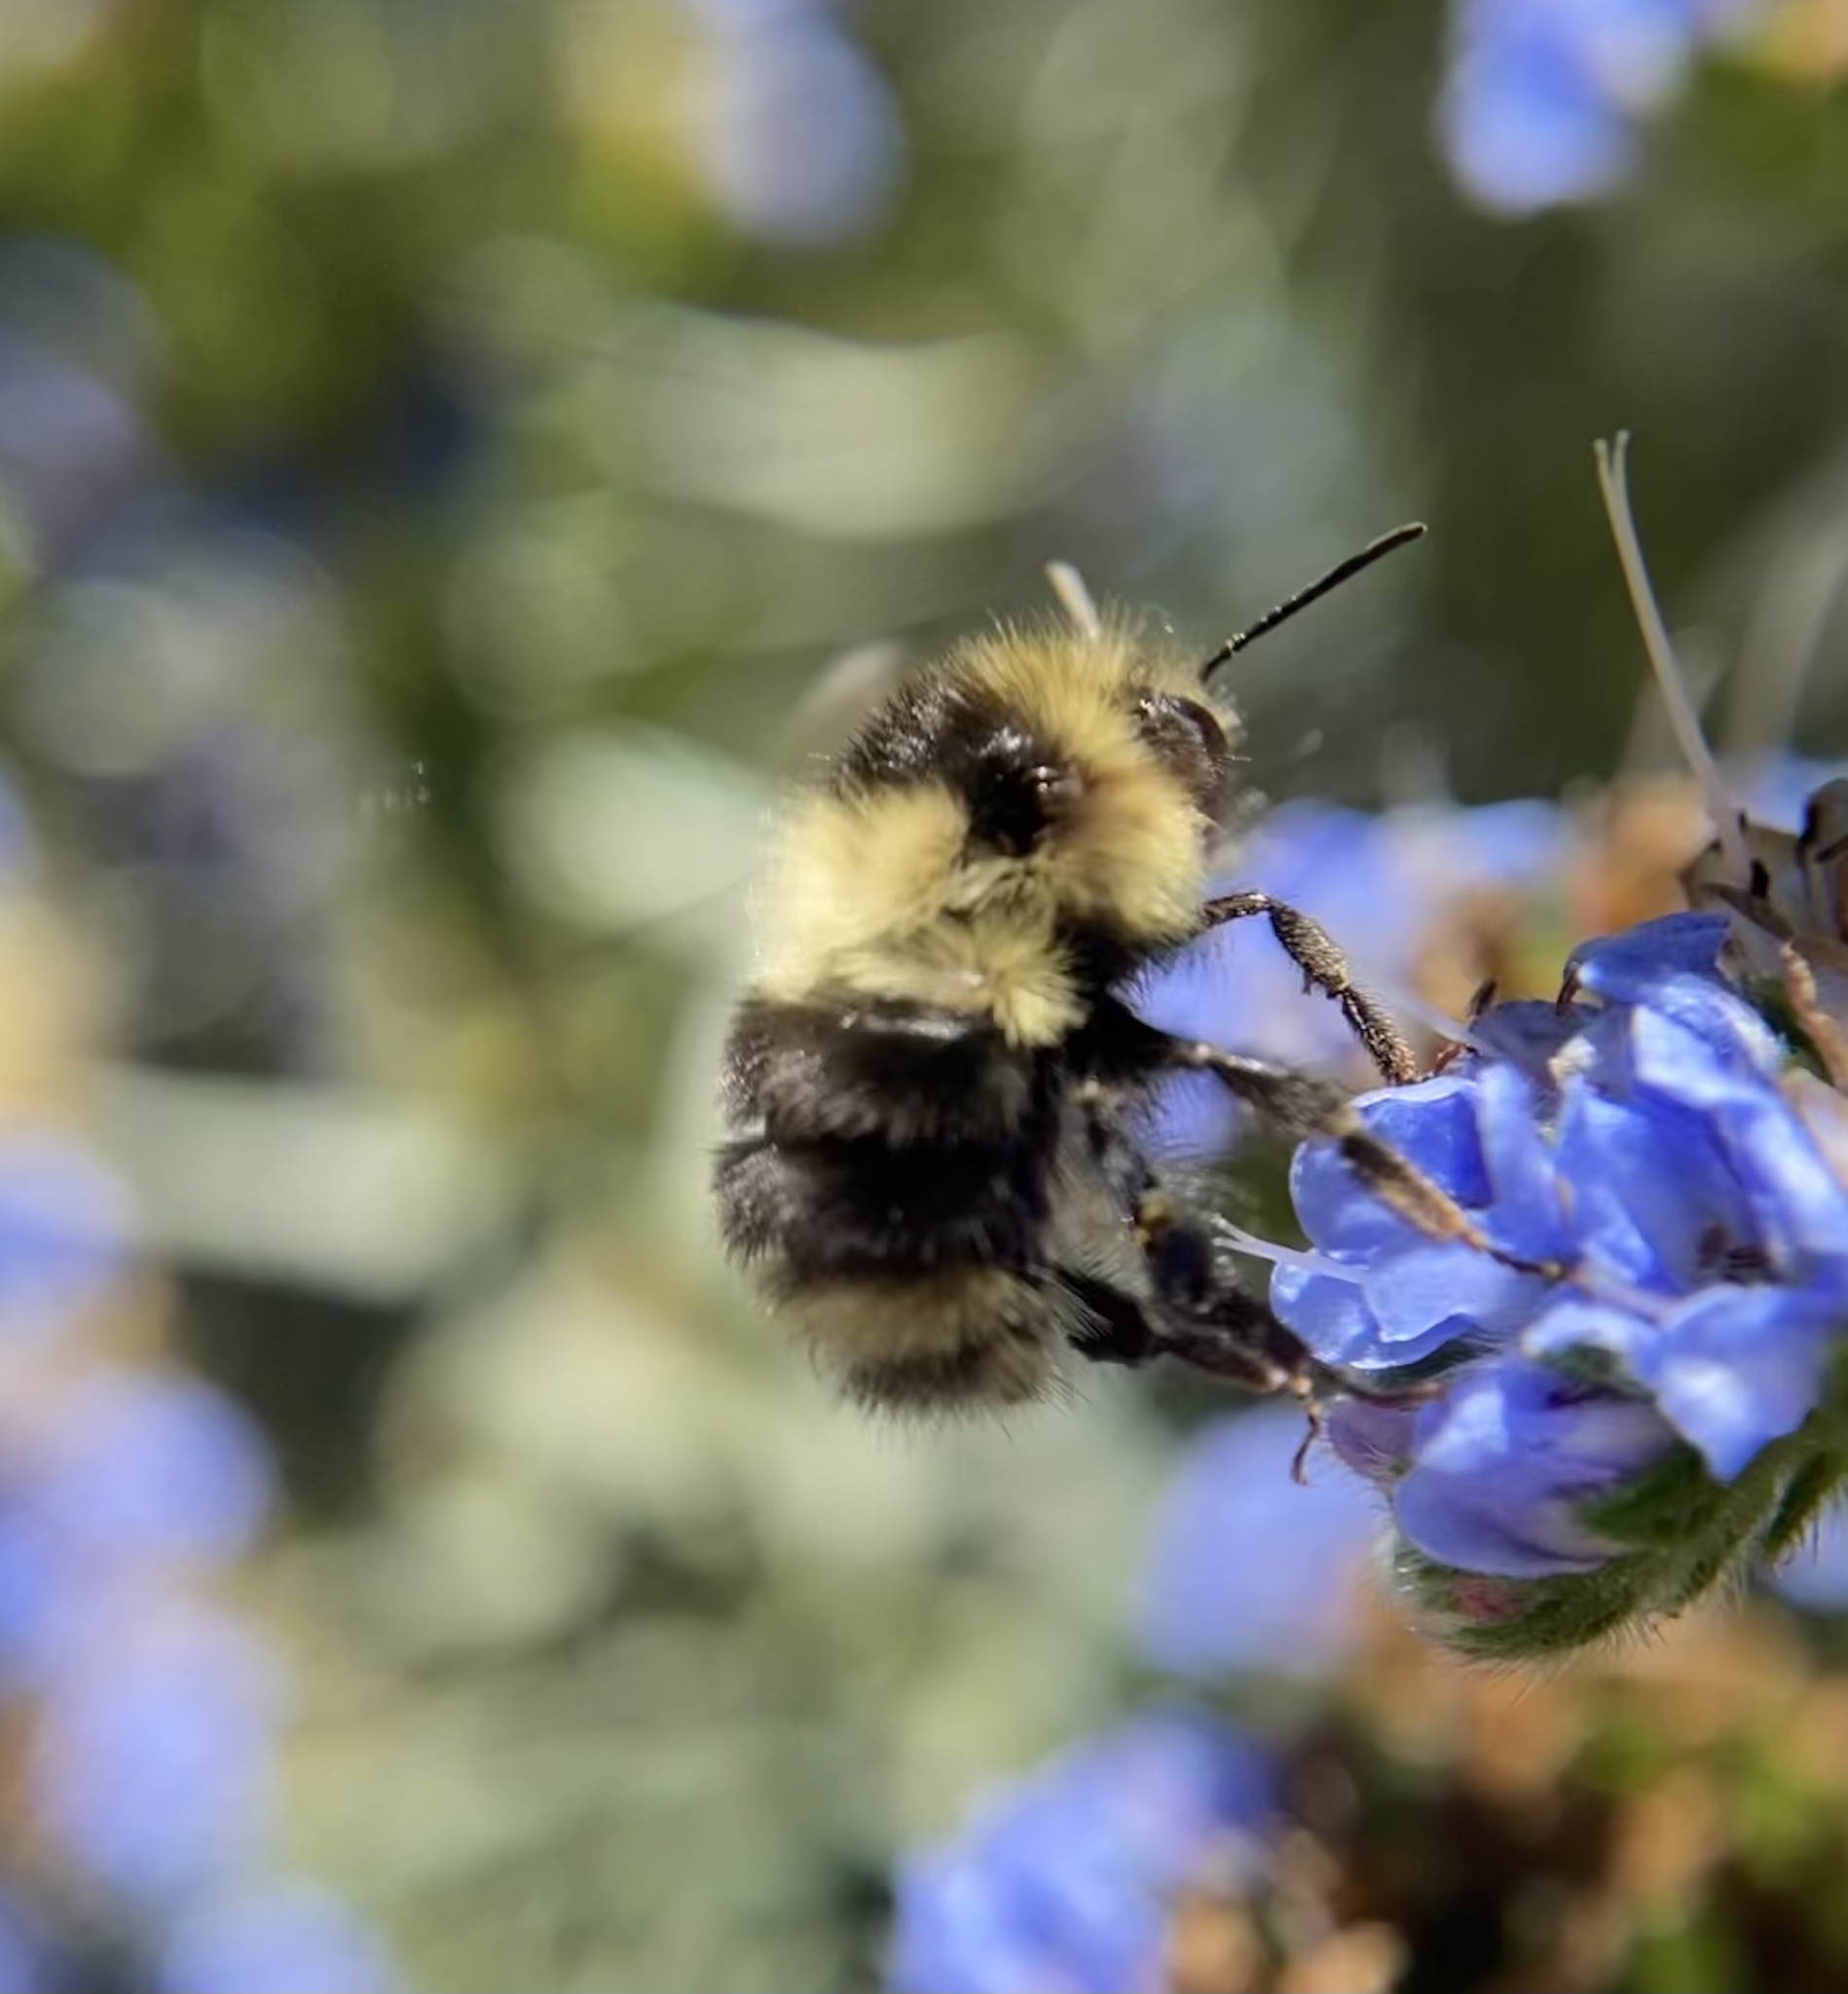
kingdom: Animalia
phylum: Arthropoda
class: Insecta
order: Hymenoptera
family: Apidae
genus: Bombus
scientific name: Bombus melanopygus
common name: Black tail bumble bee
